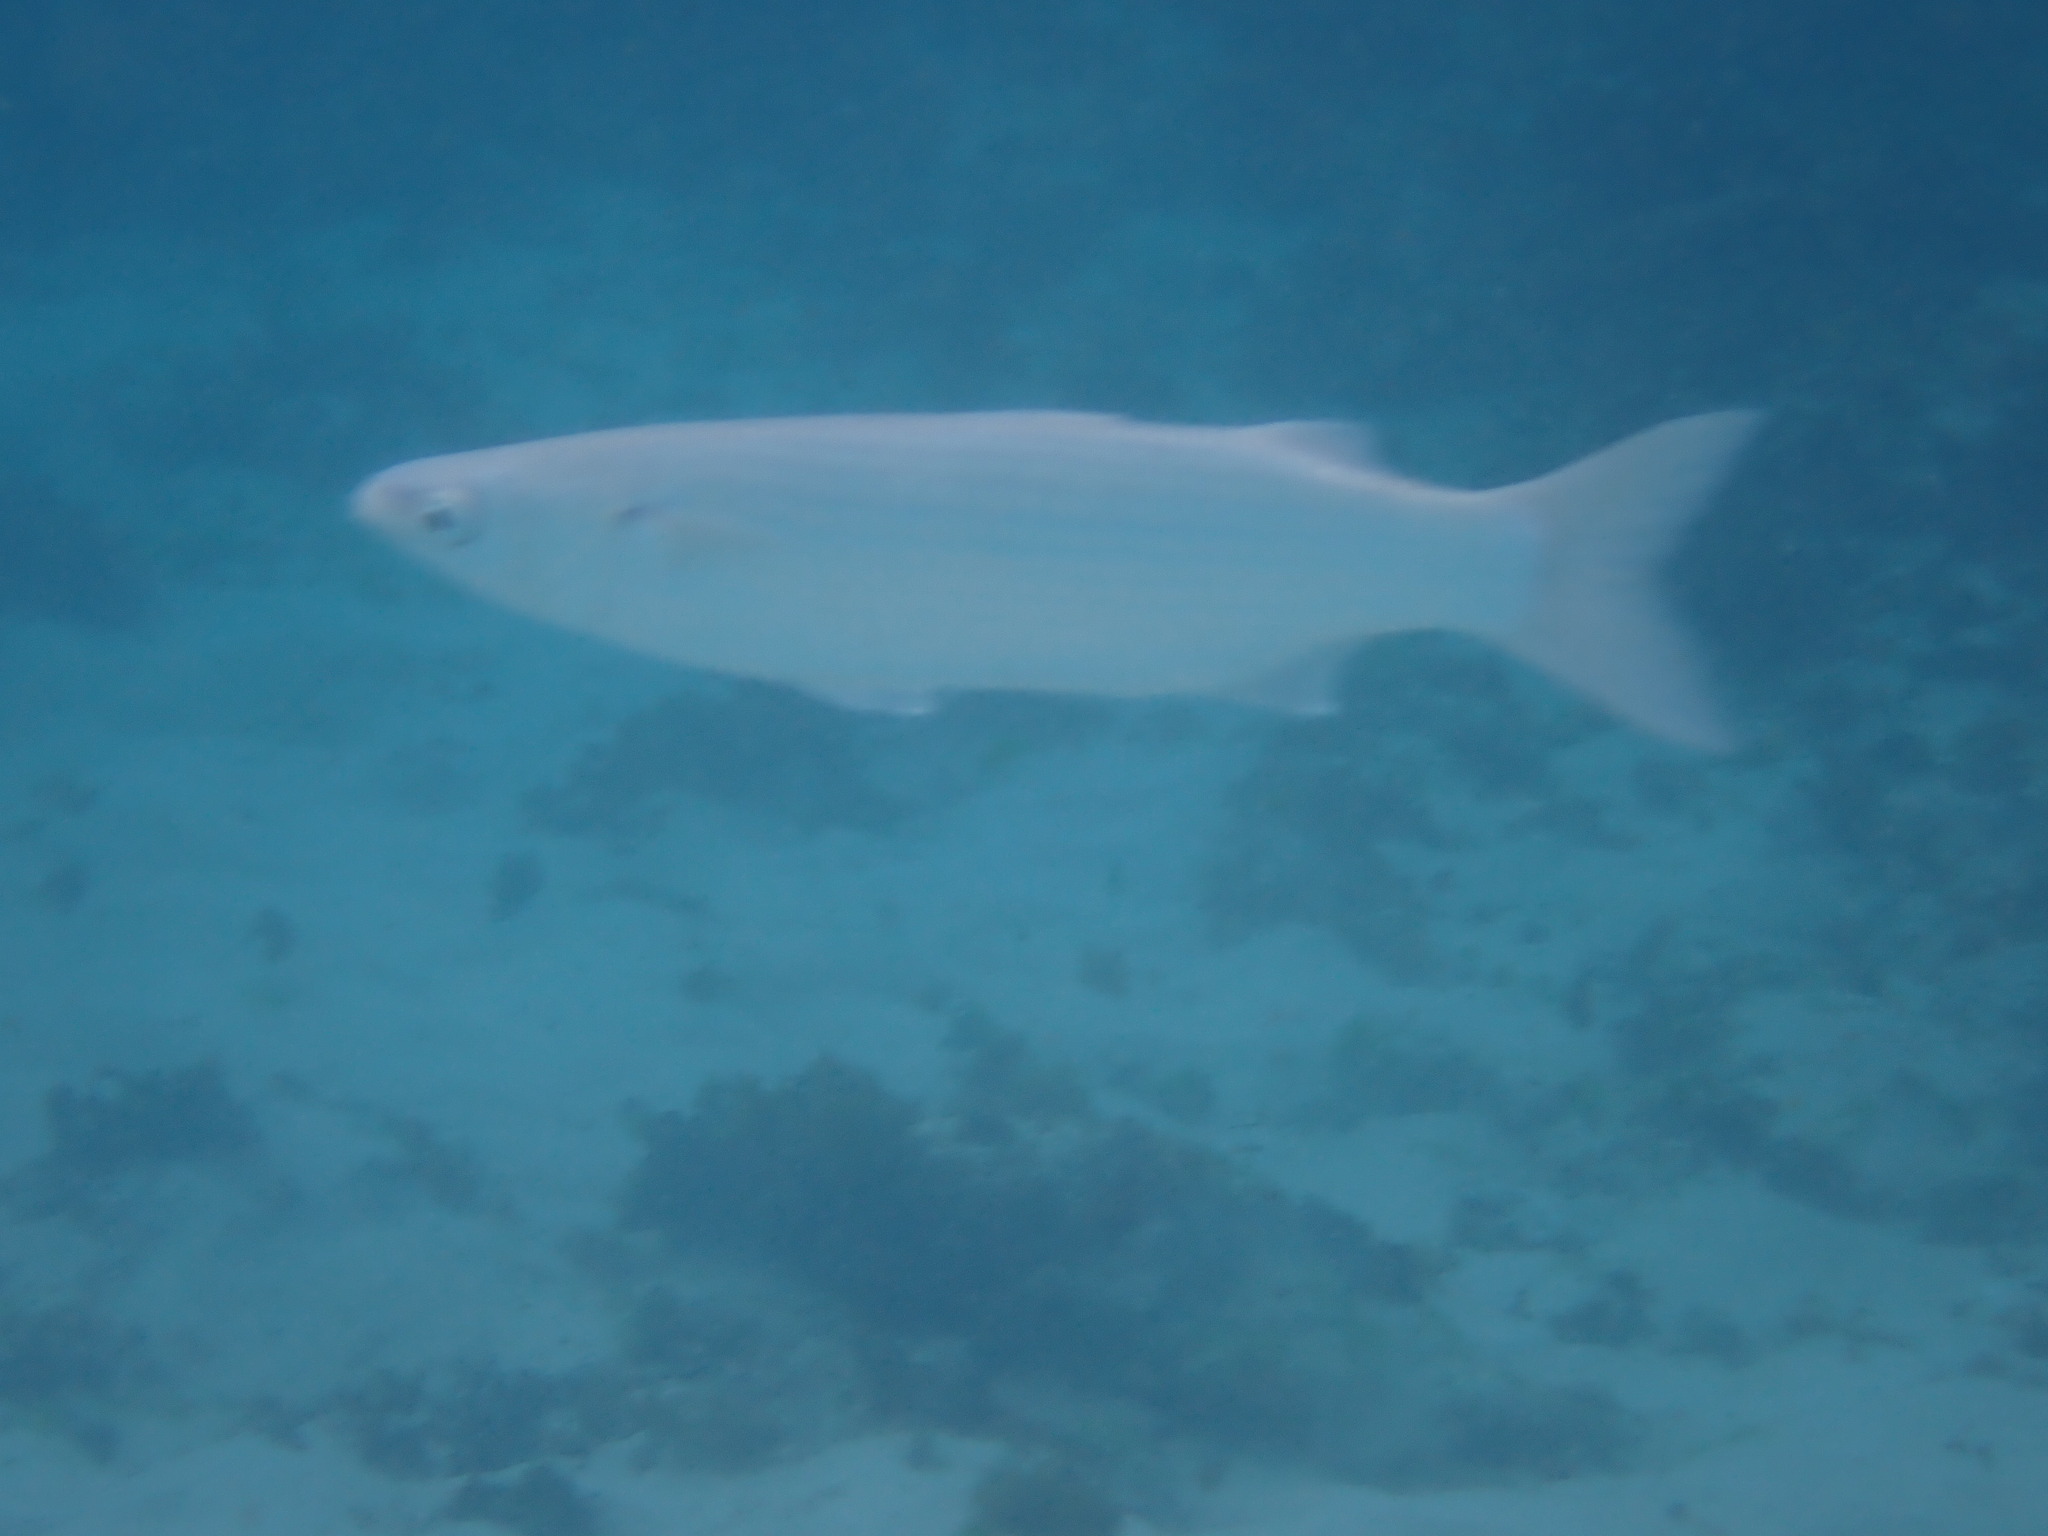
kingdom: Animalia
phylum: Chordata
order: Mugiliformes
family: Mugilidae
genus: Myxus
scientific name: Myxus elongatus
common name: Sand grey mullet
